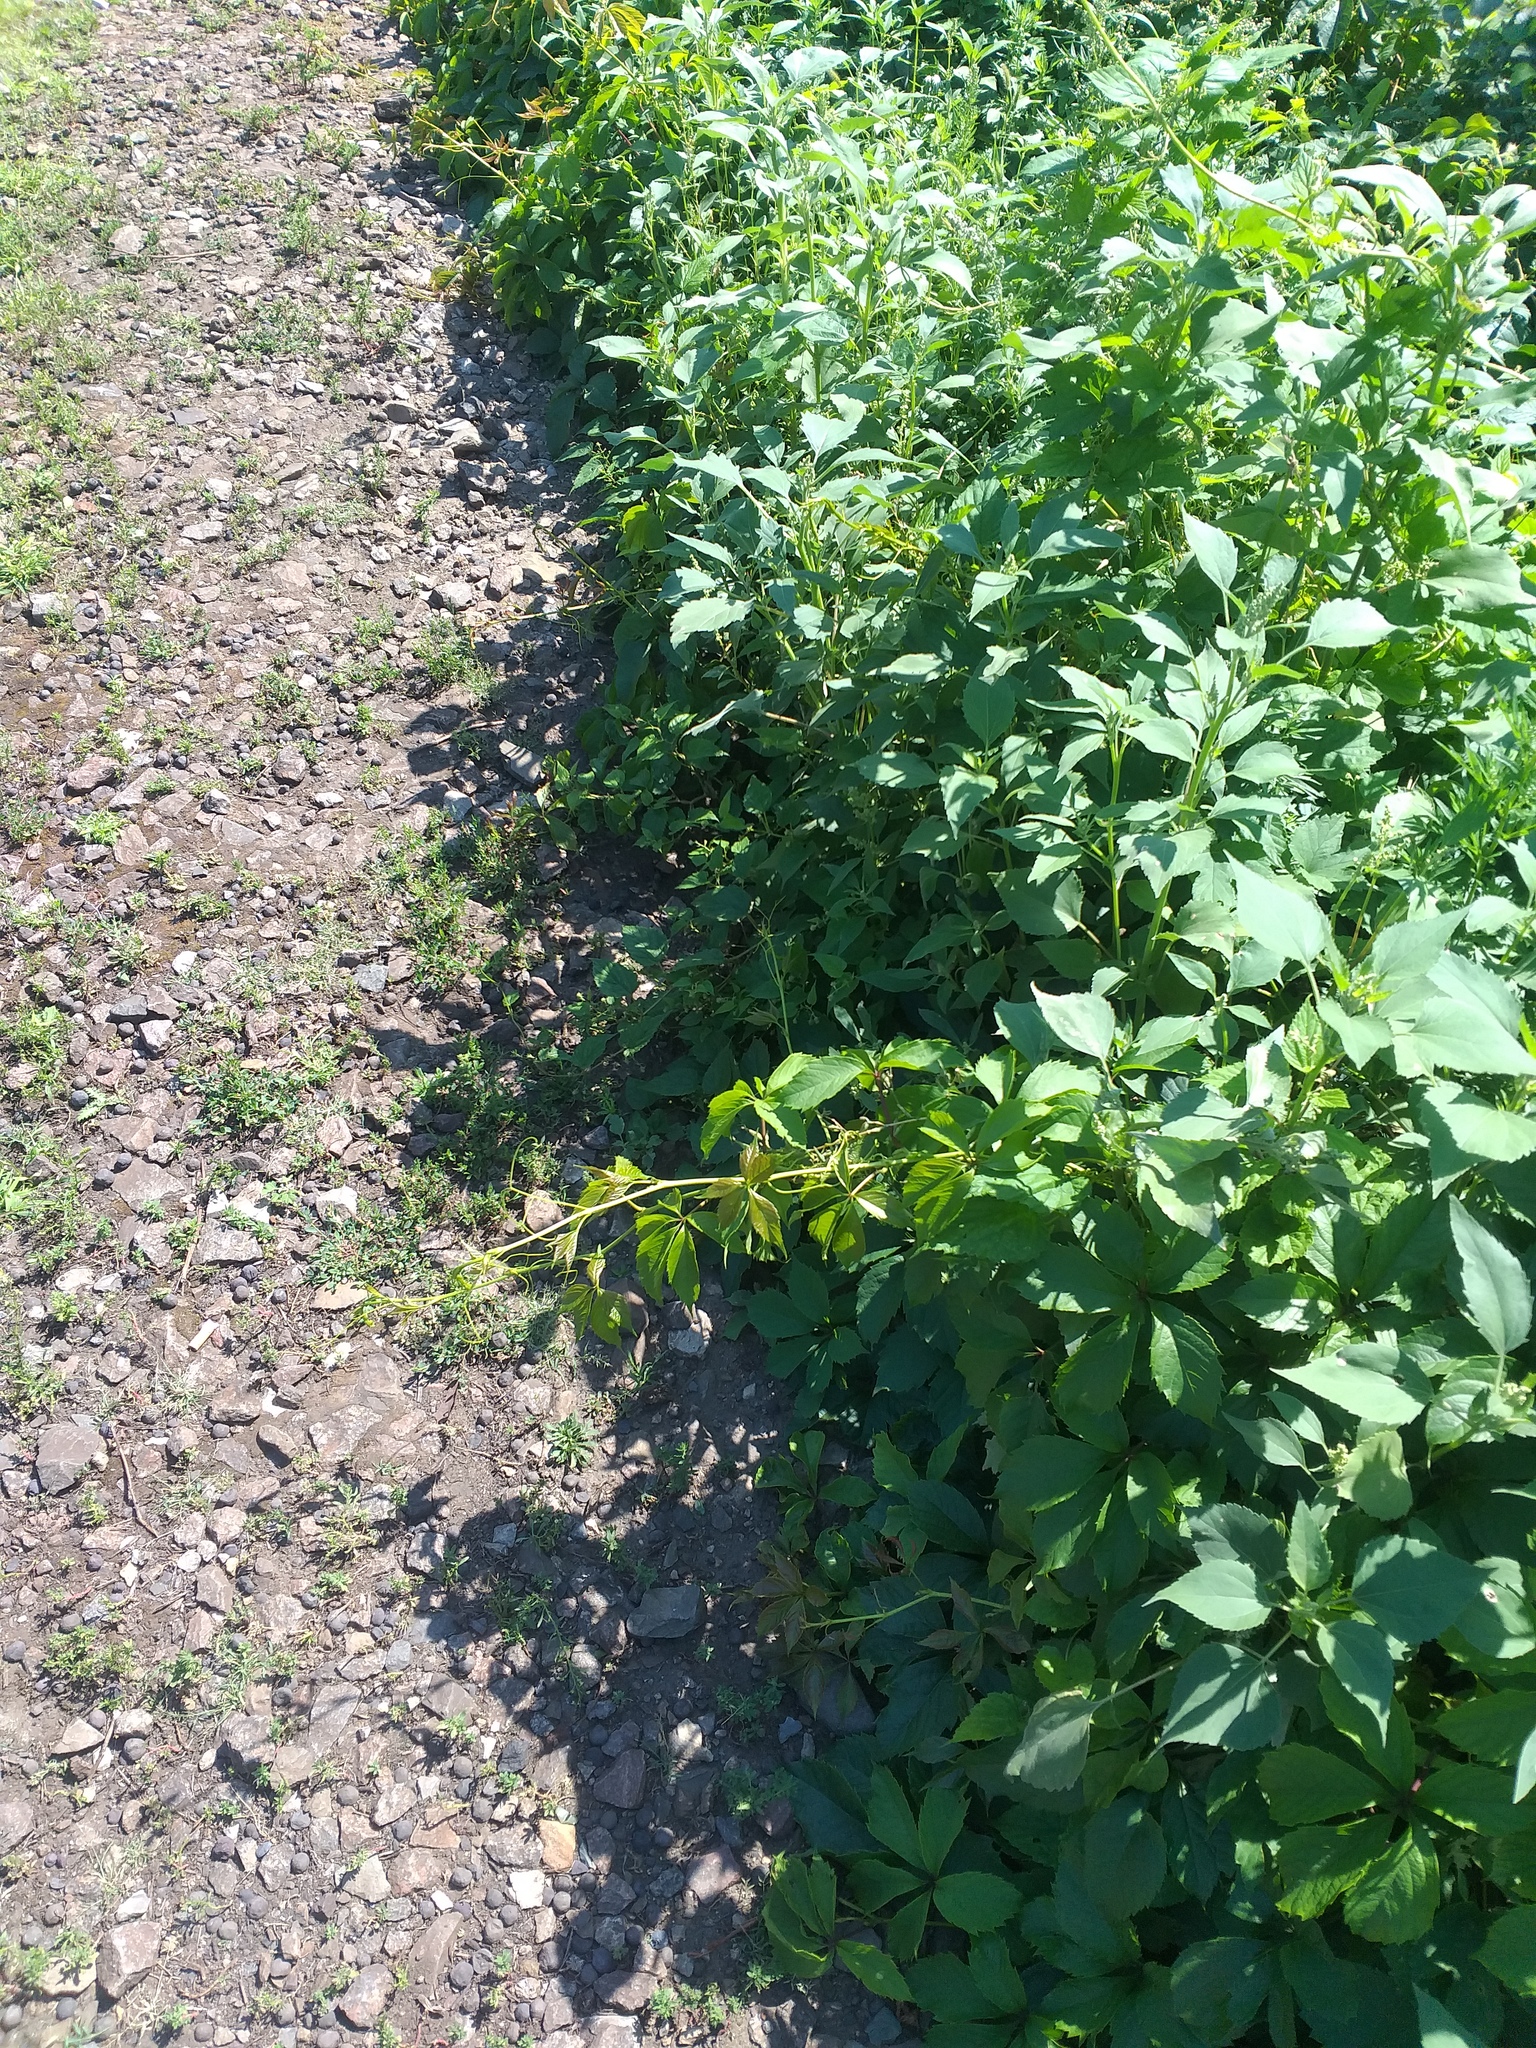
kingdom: Plantae
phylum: Tracheophyta
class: Magnoliopsida
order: Vitales
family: Vitaceae
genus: Parthenocissus
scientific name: Parthenocissus inserta
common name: False virginia-creeper
